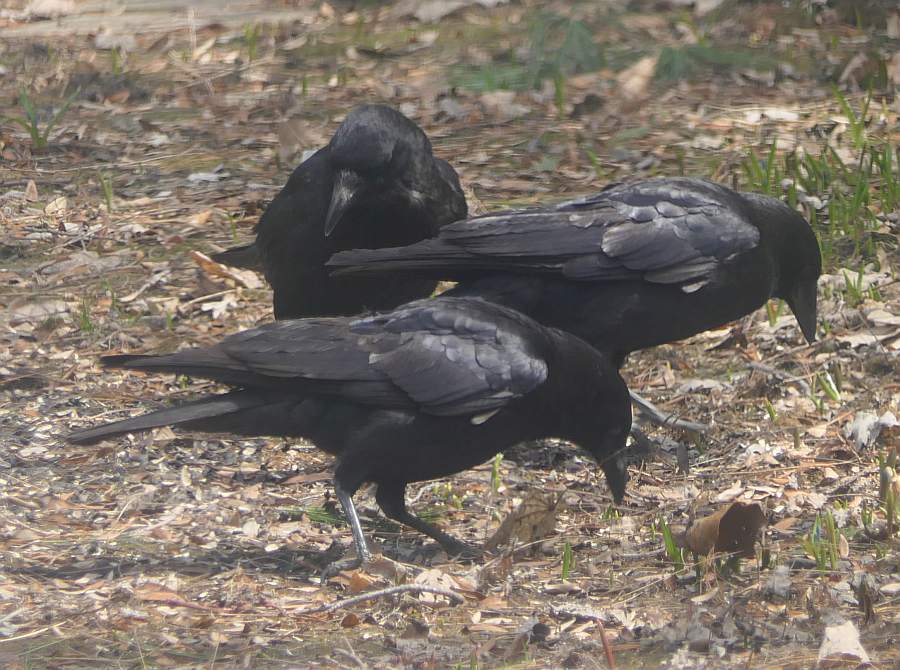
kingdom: Animalia
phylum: Chordata
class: Aves
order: Passeriformes
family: Corvidae
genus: Corvus
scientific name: Corvus brachyrhynchos
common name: American crow
